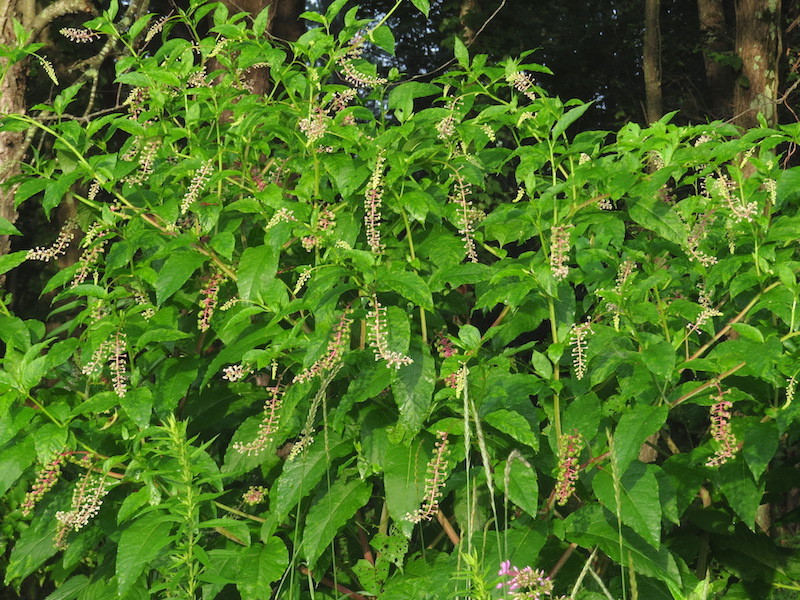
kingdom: Plantae
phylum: Tracheophyta
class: Magnoliopsida
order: Caryophyllales
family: Phytolaccaceae
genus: Phytolacca
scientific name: Phytolacca americana
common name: American pokeweed
